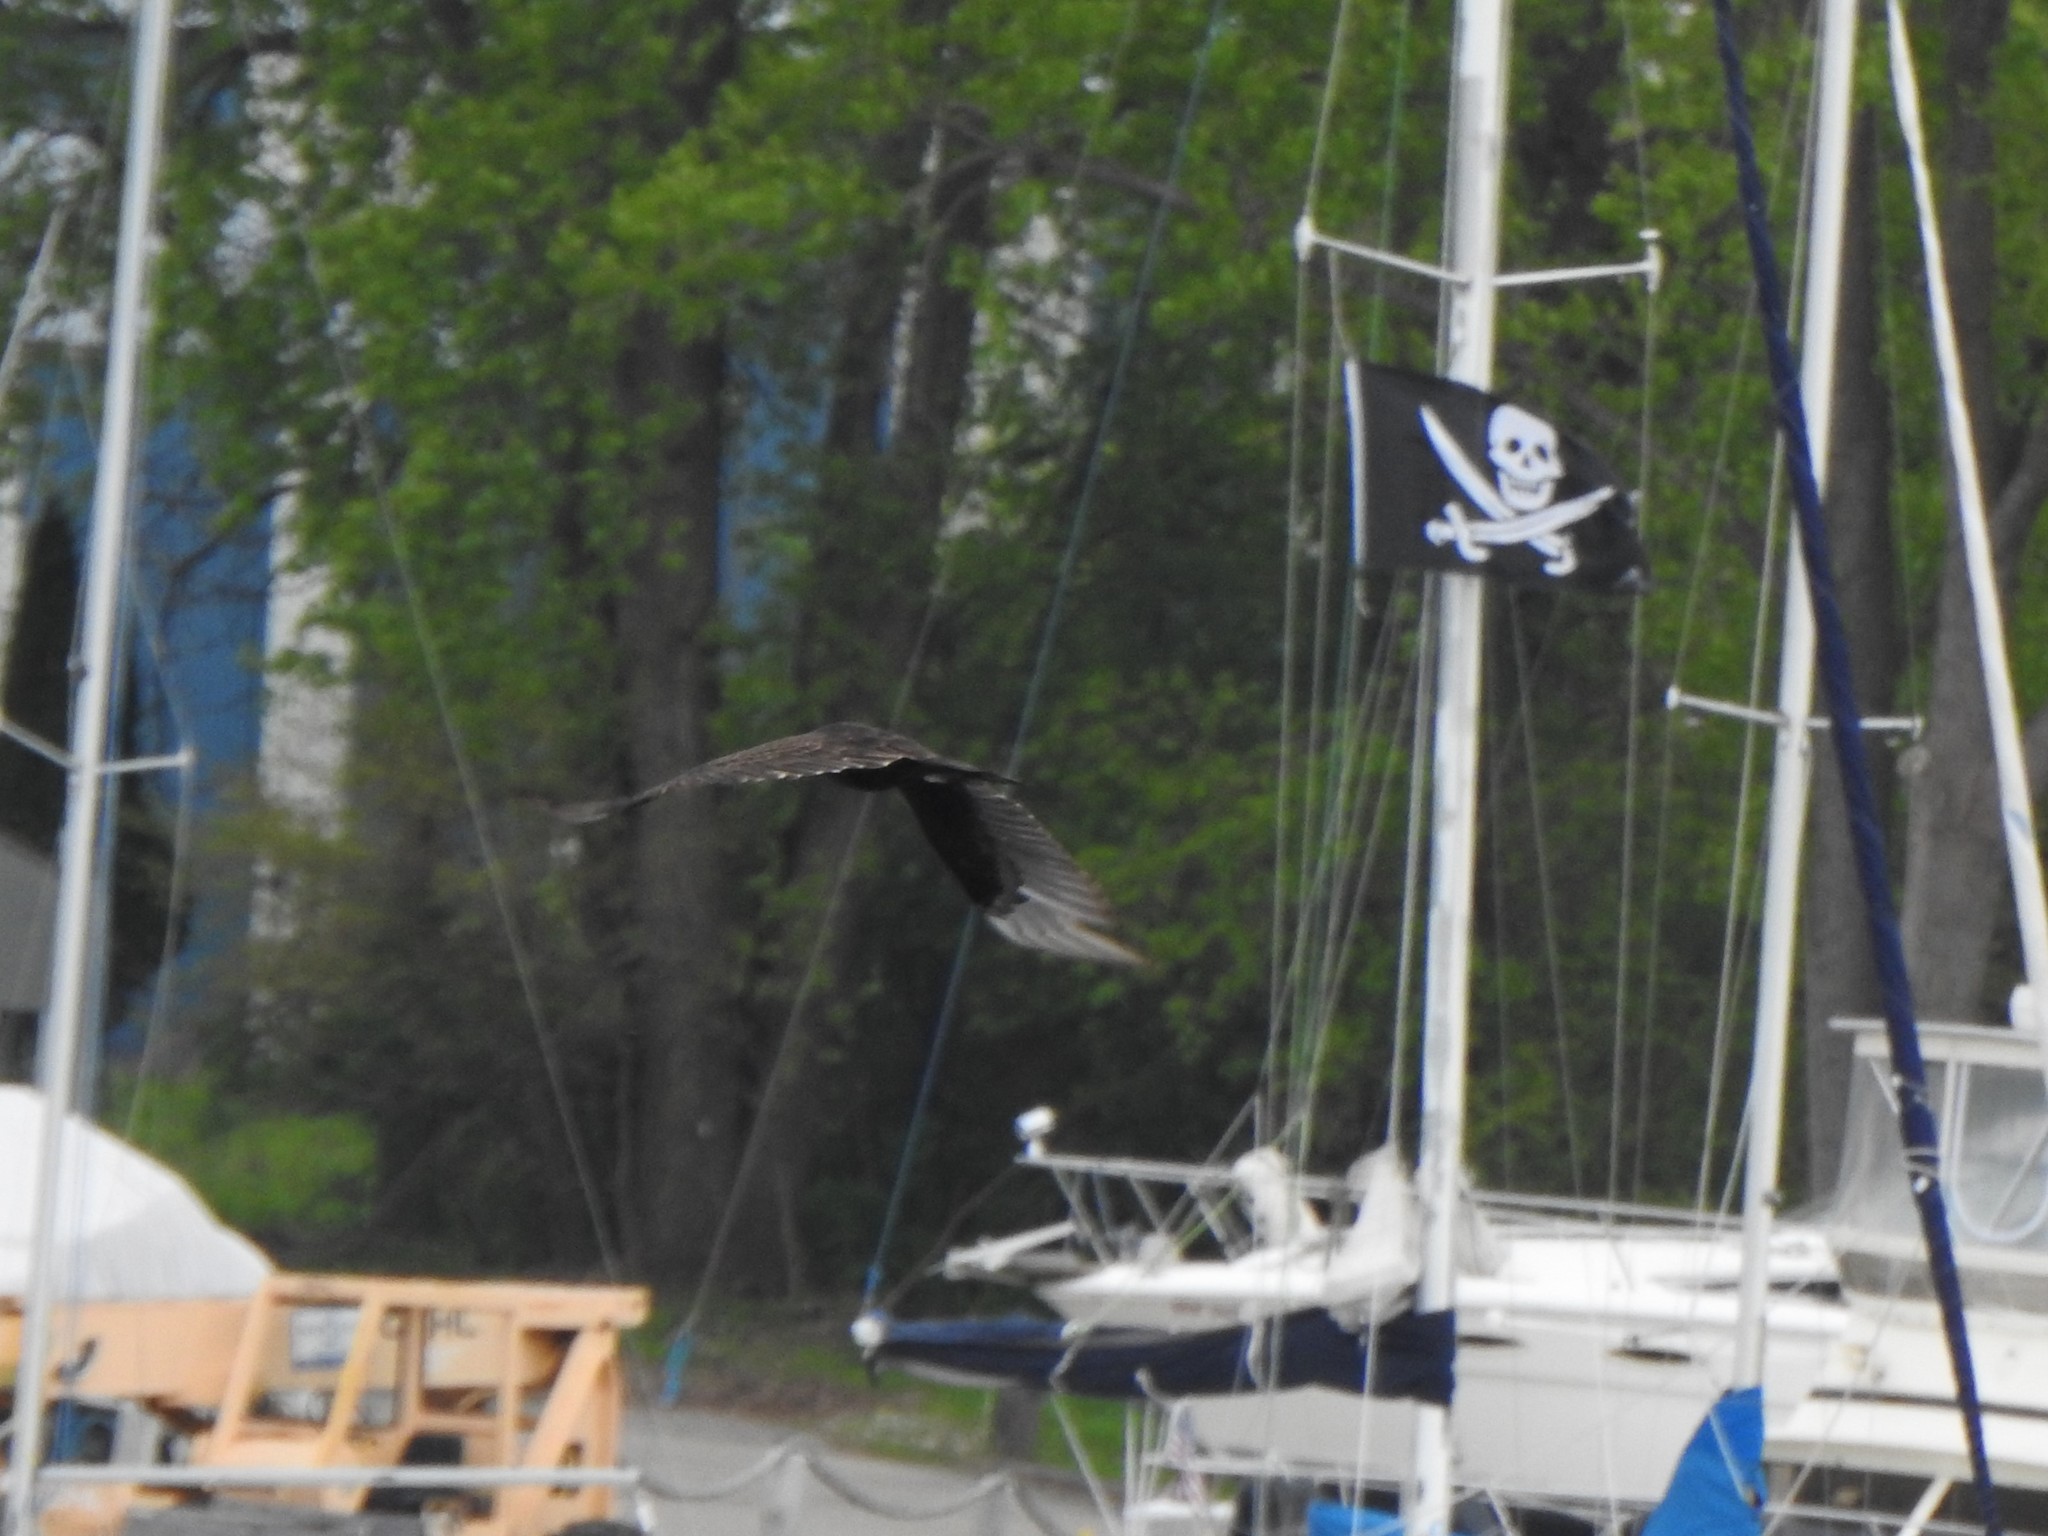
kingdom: Animalia
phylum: Chordata
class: Aves
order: Accipitriformes
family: Cathartidae
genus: Cathartes
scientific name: Cathartes aura
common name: Turkey vulture
